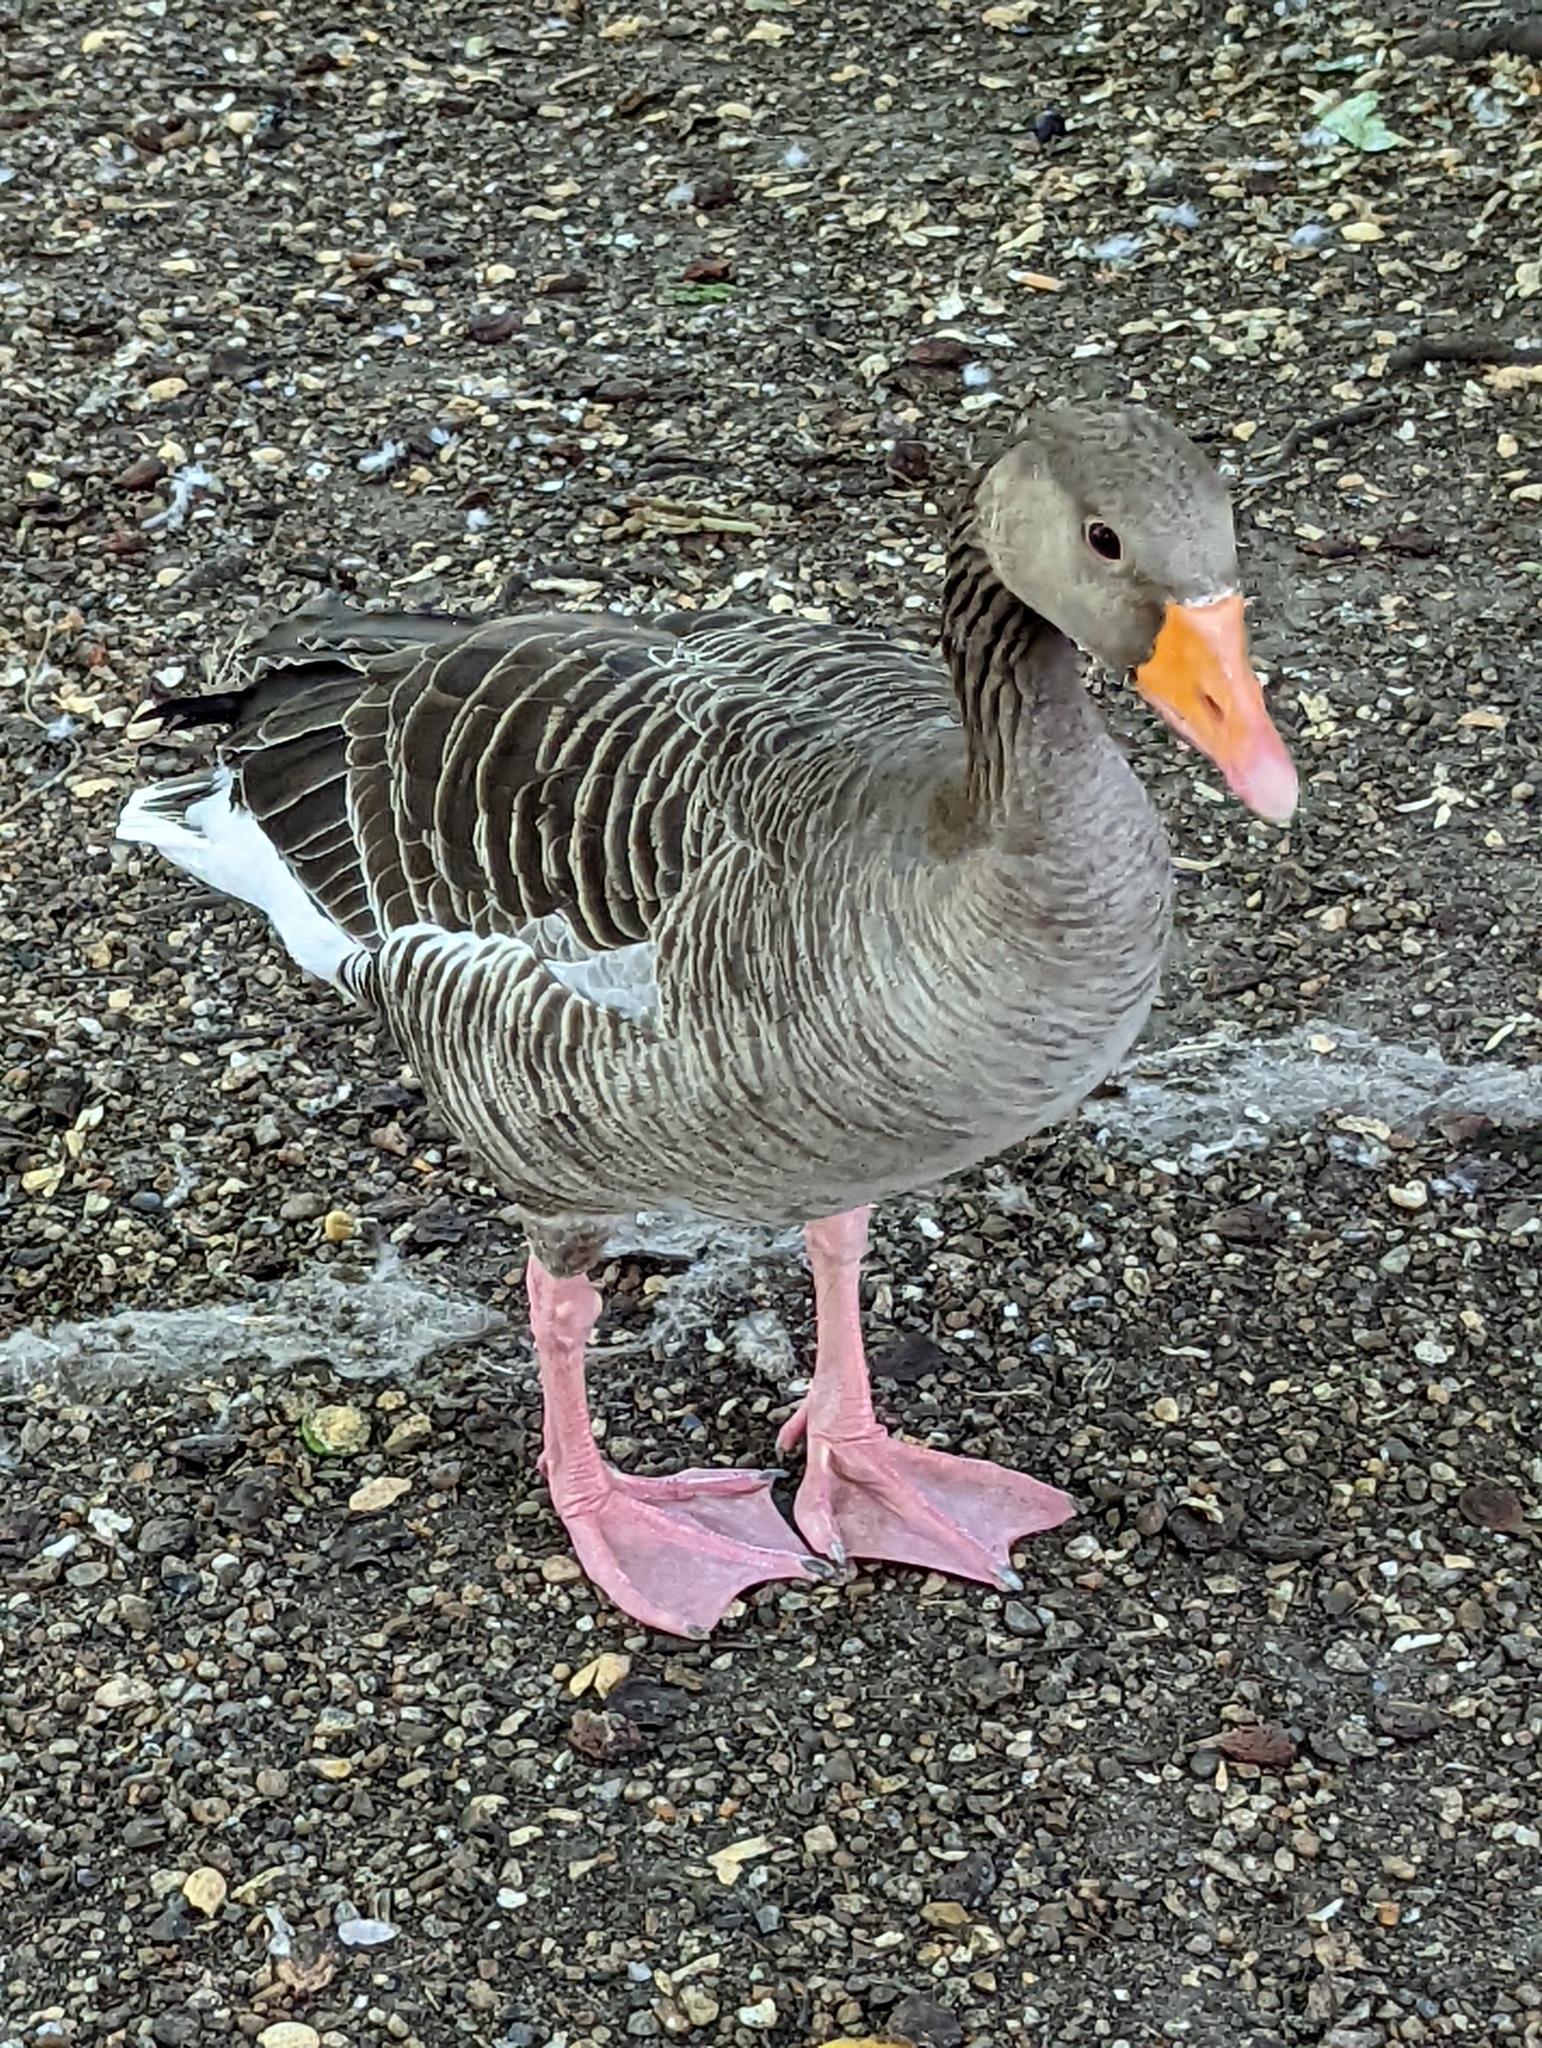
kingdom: Animalia
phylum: Chordata
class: Aves
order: Anseriformes
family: Anatidae
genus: Anser
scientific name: Anser anser
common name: Greylag goose
